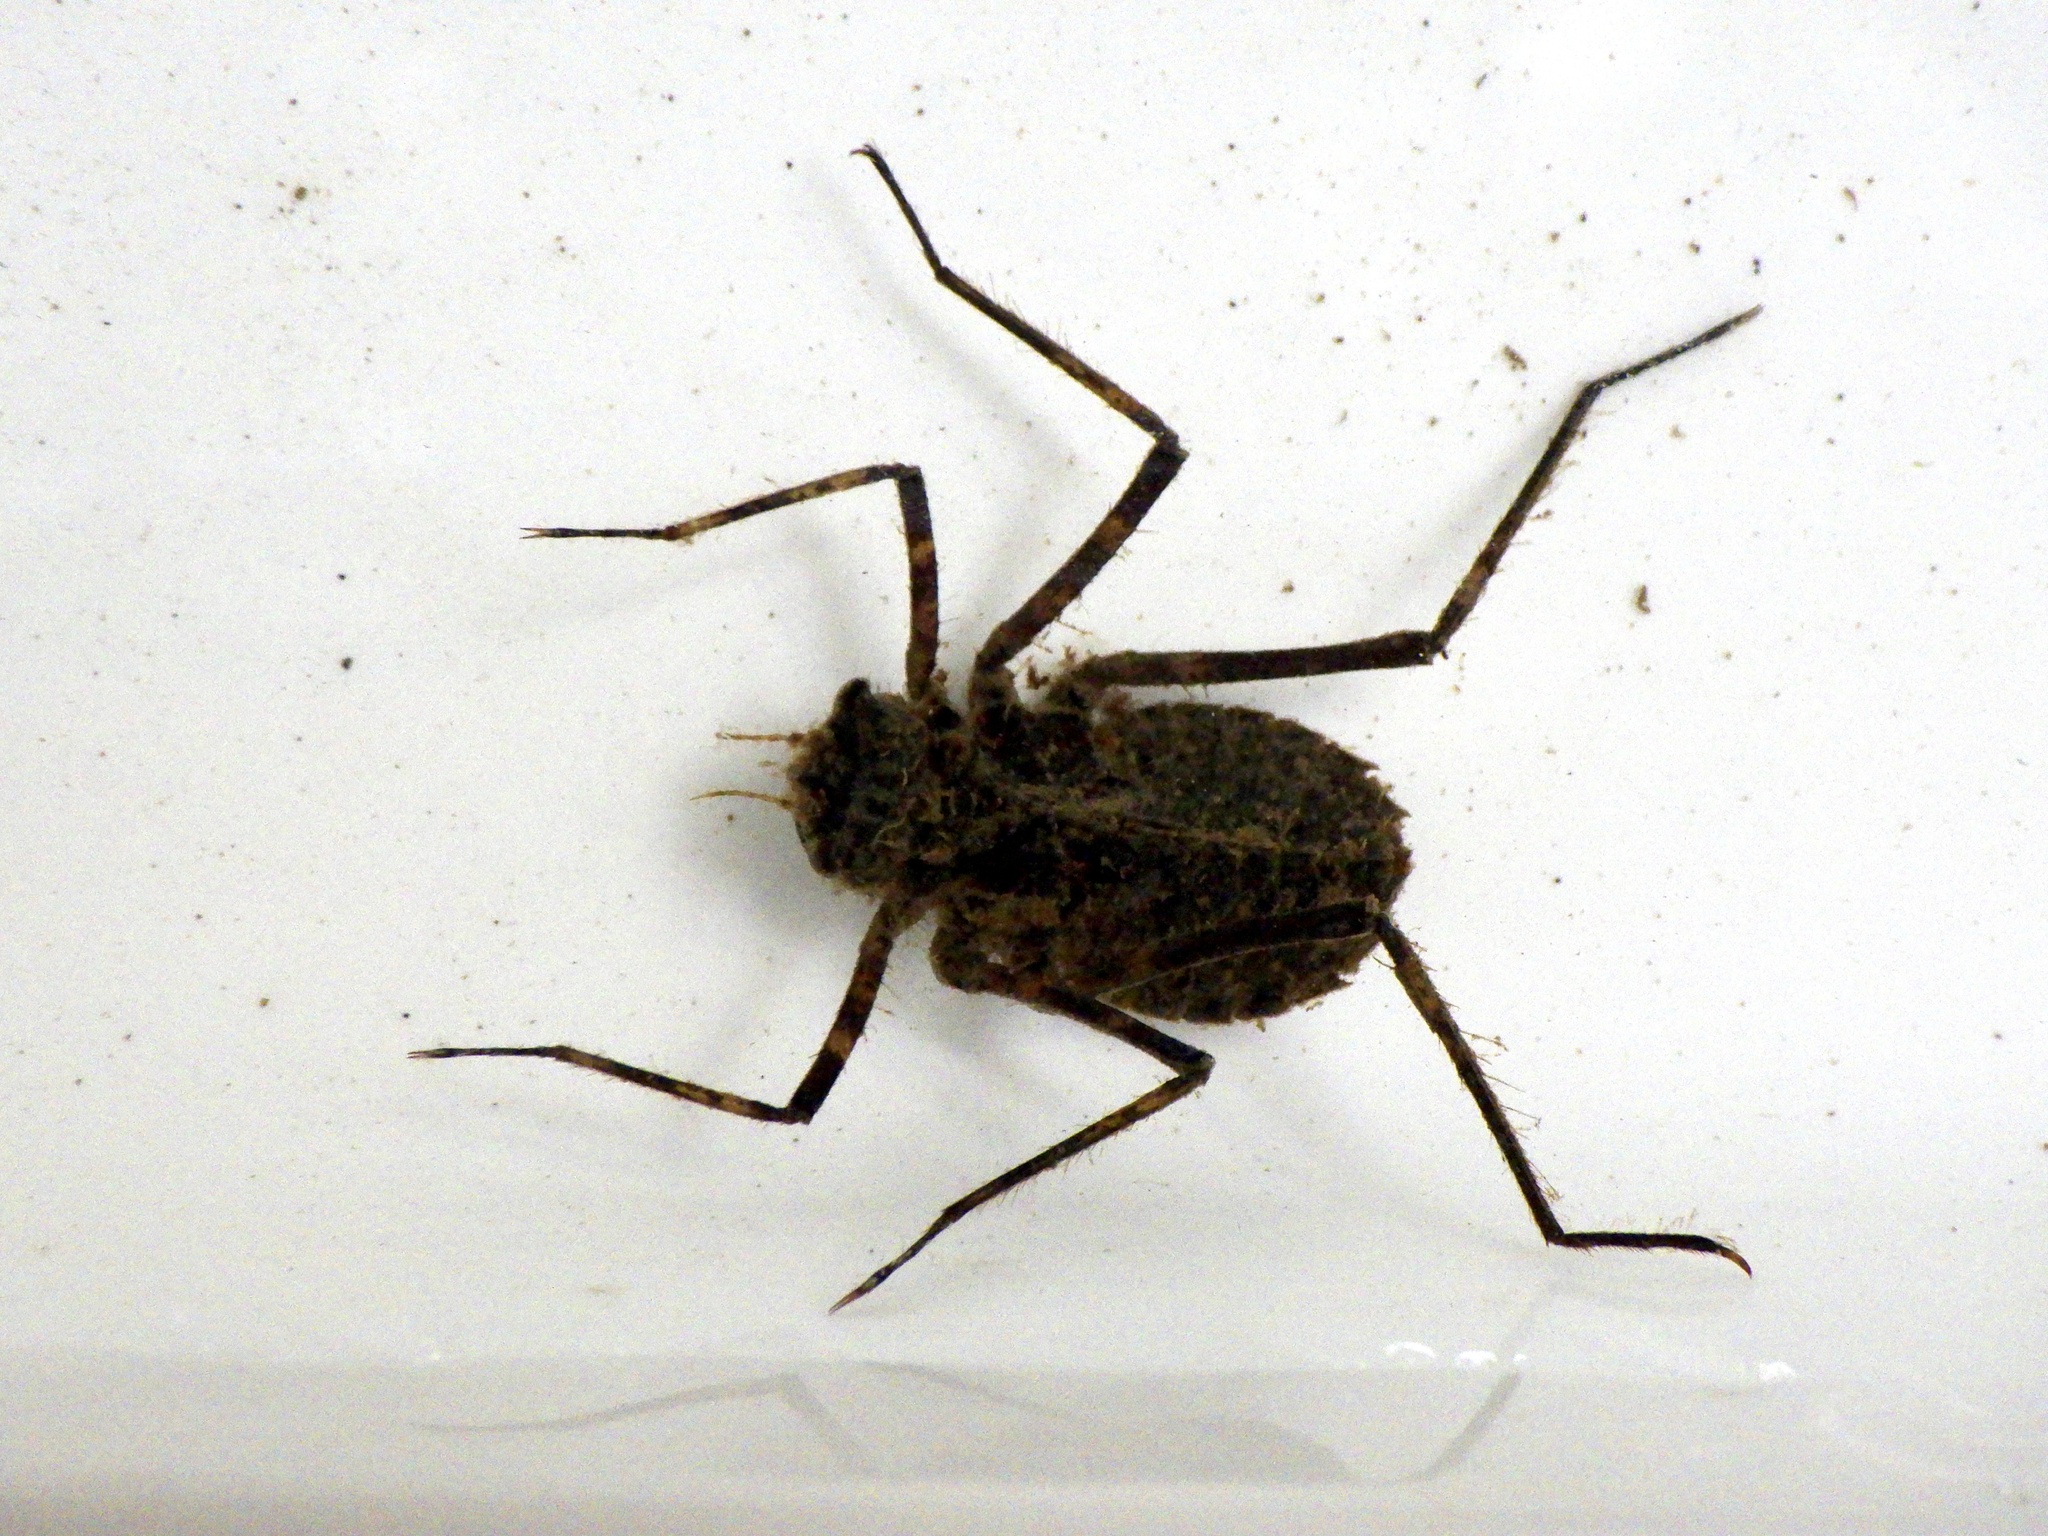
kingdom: Animalia
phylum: Arthropoda
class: Insecta
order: Odonata
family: Macromiidae
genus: Macromia
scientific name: Macromia amphigena
